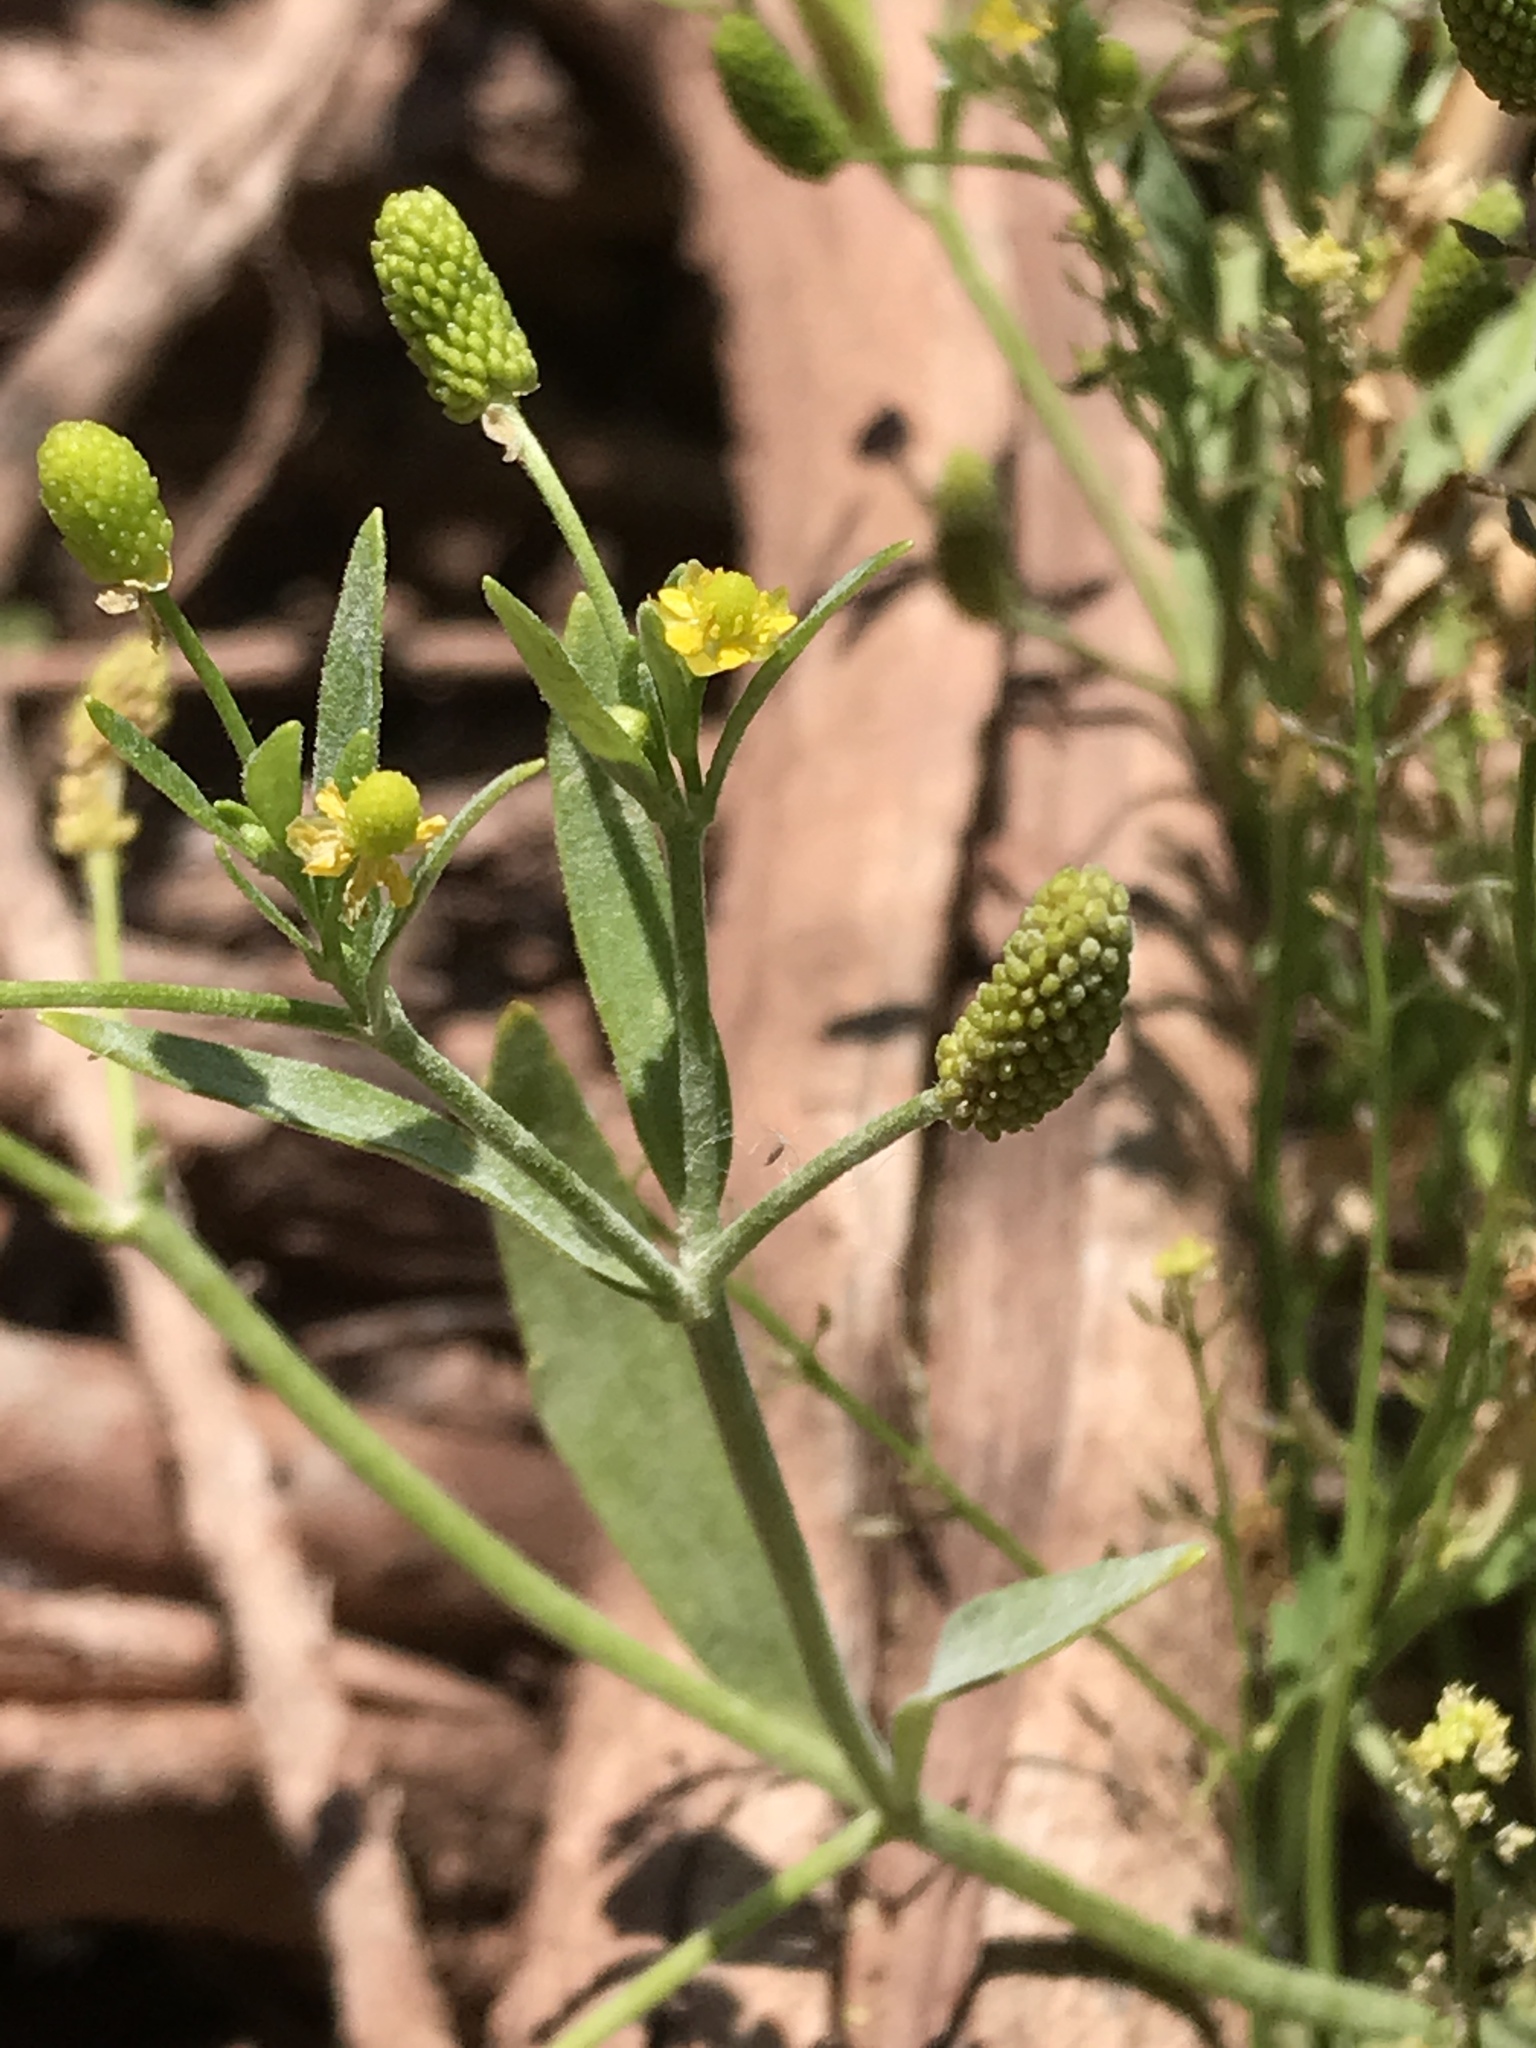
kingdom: Plantae
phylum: Tracheophyta
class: Magnoliopsida
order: Ranunculales
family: Ranunculaceae
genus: Ranunculus
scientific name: Ranunculus sceleratus
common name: Celery-leaved buttercup
